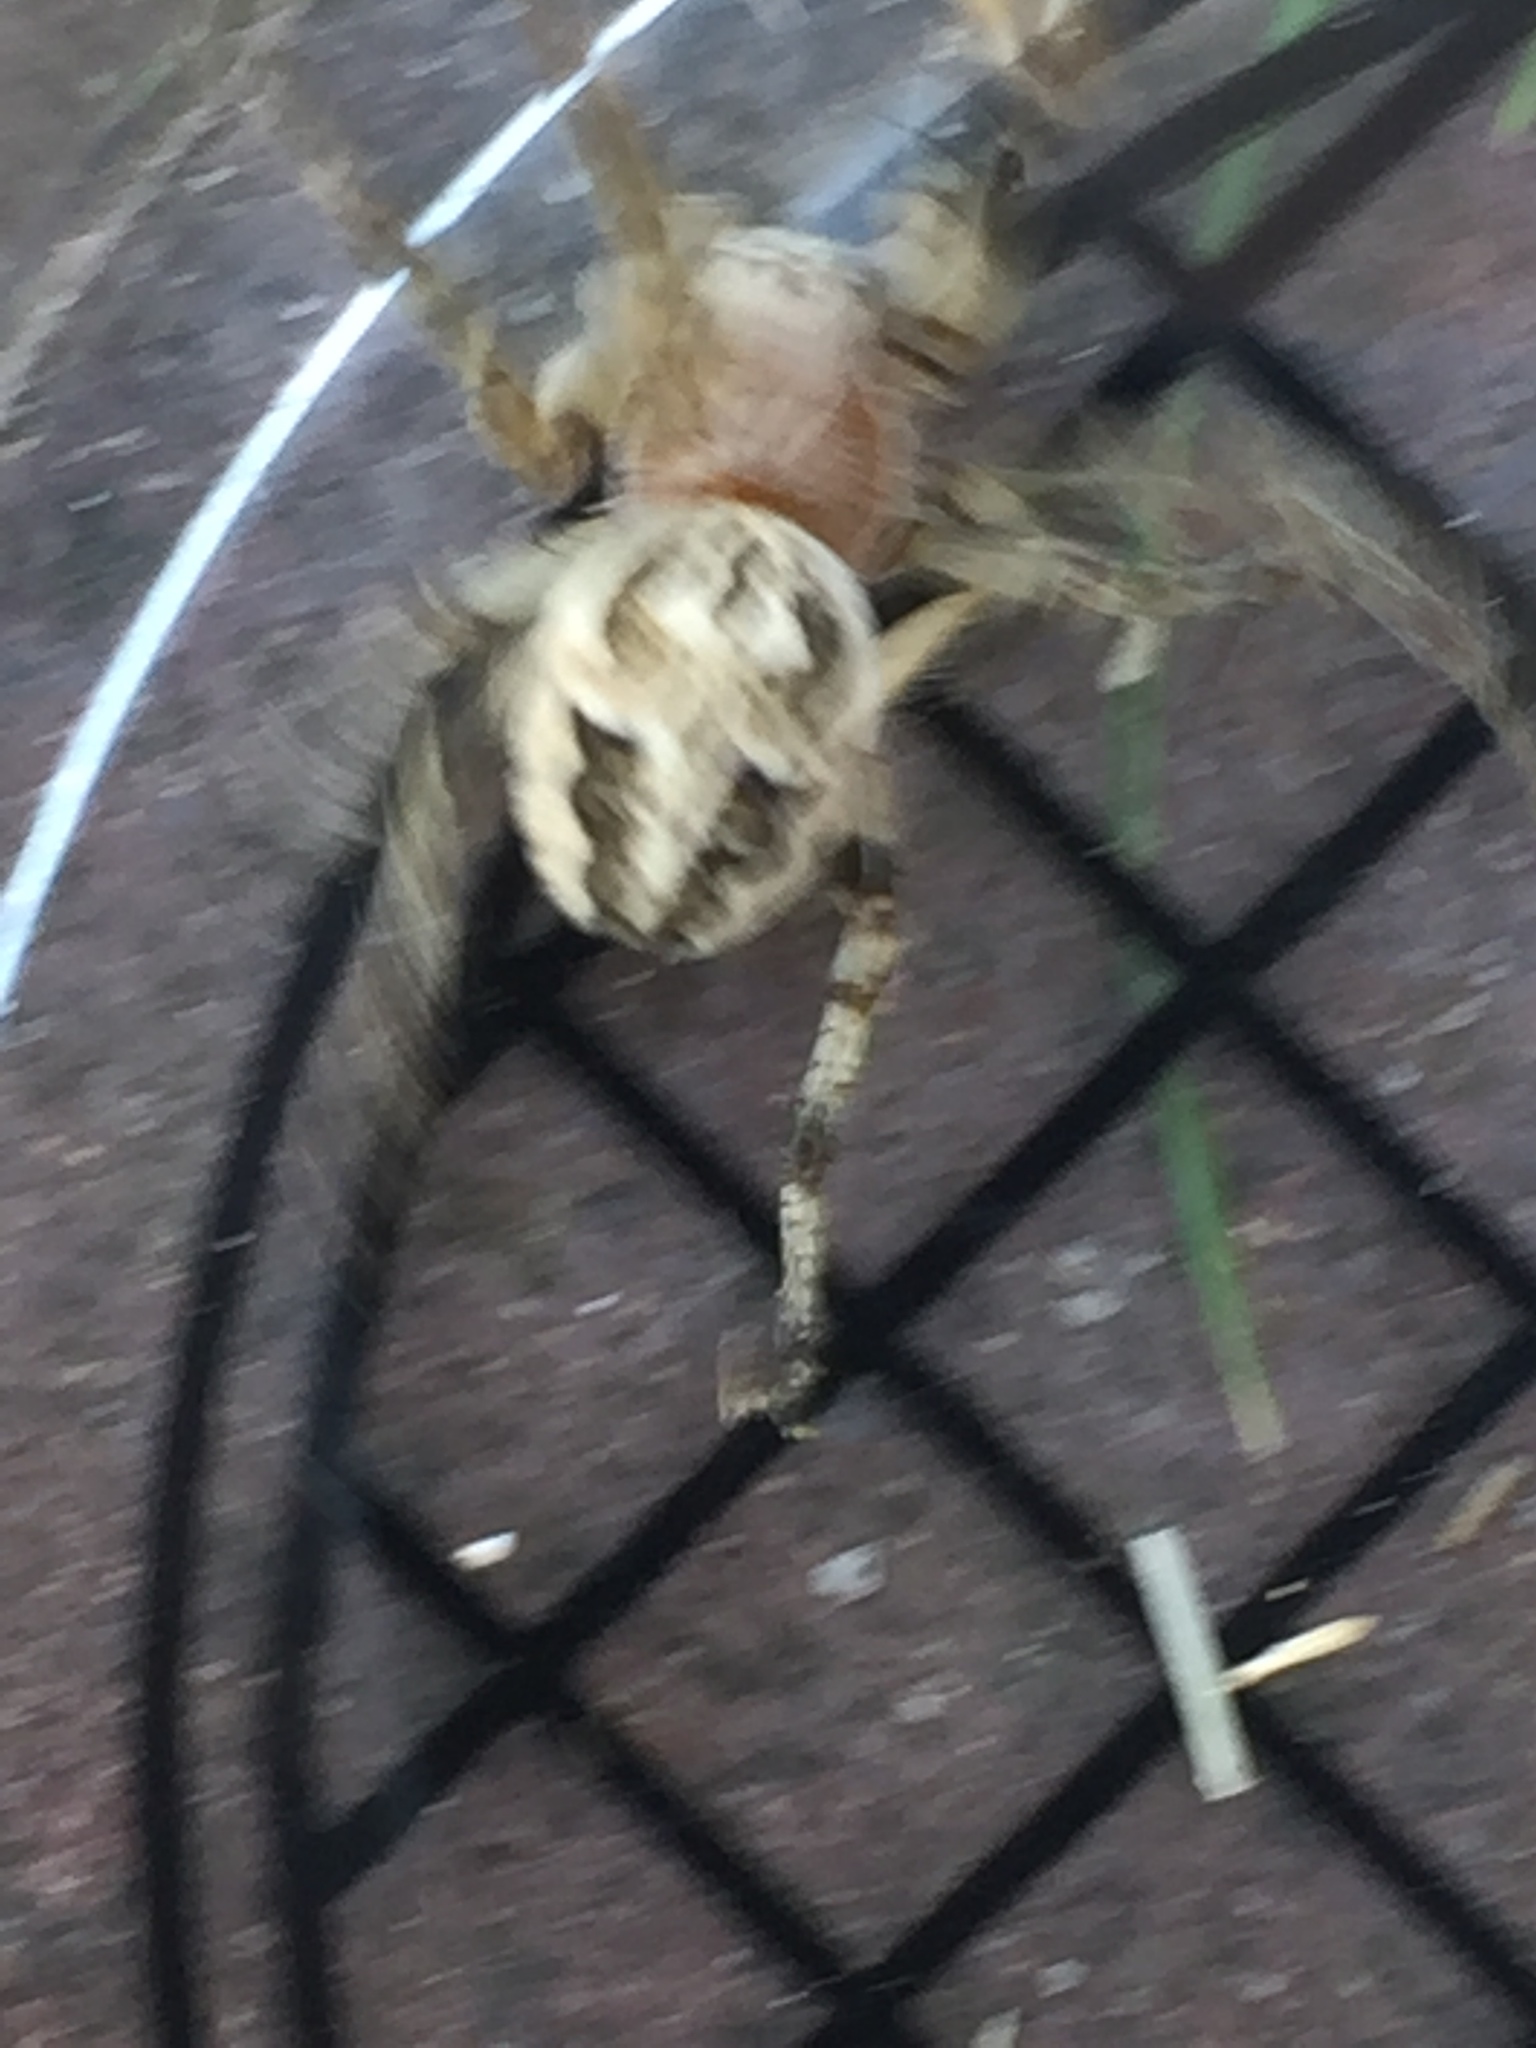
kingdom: Animalia
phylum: Arthropoda
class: Arachnida
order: Araneae
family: Araneidae
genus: Larinioides
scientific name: Larinioides cornutus
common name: Furrow orbweaver
